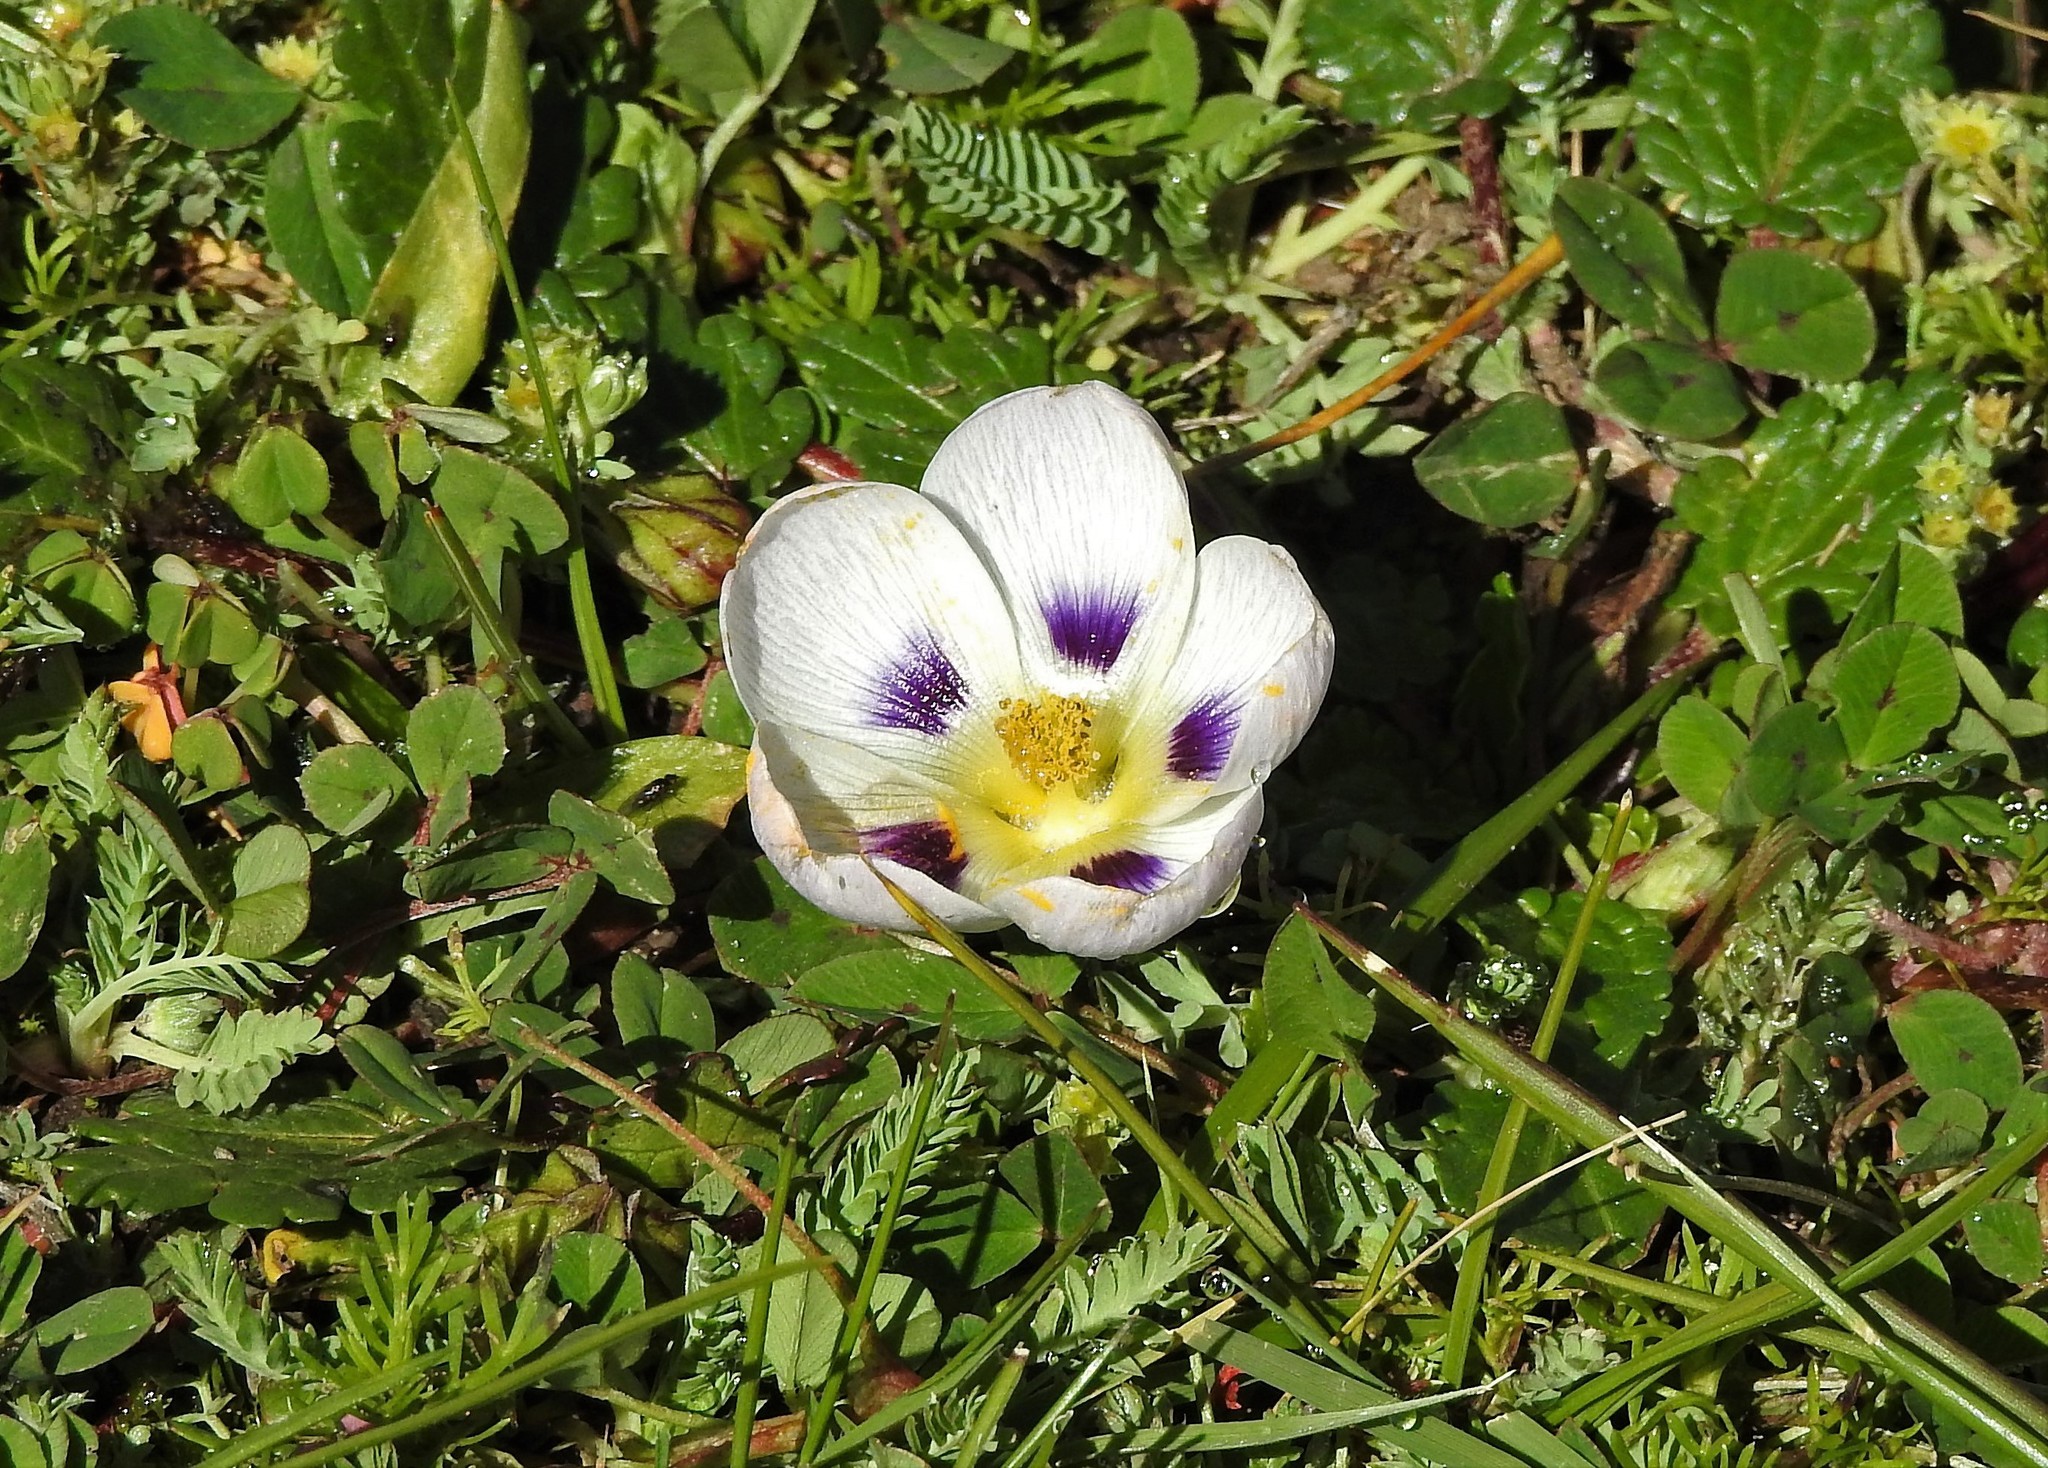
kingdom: Plantae
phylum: Tracheophyta
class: Magnoliopsida
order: Malvales
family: Malvaceae
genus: Acaulimalva
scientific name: Acaulimalva nubigena
